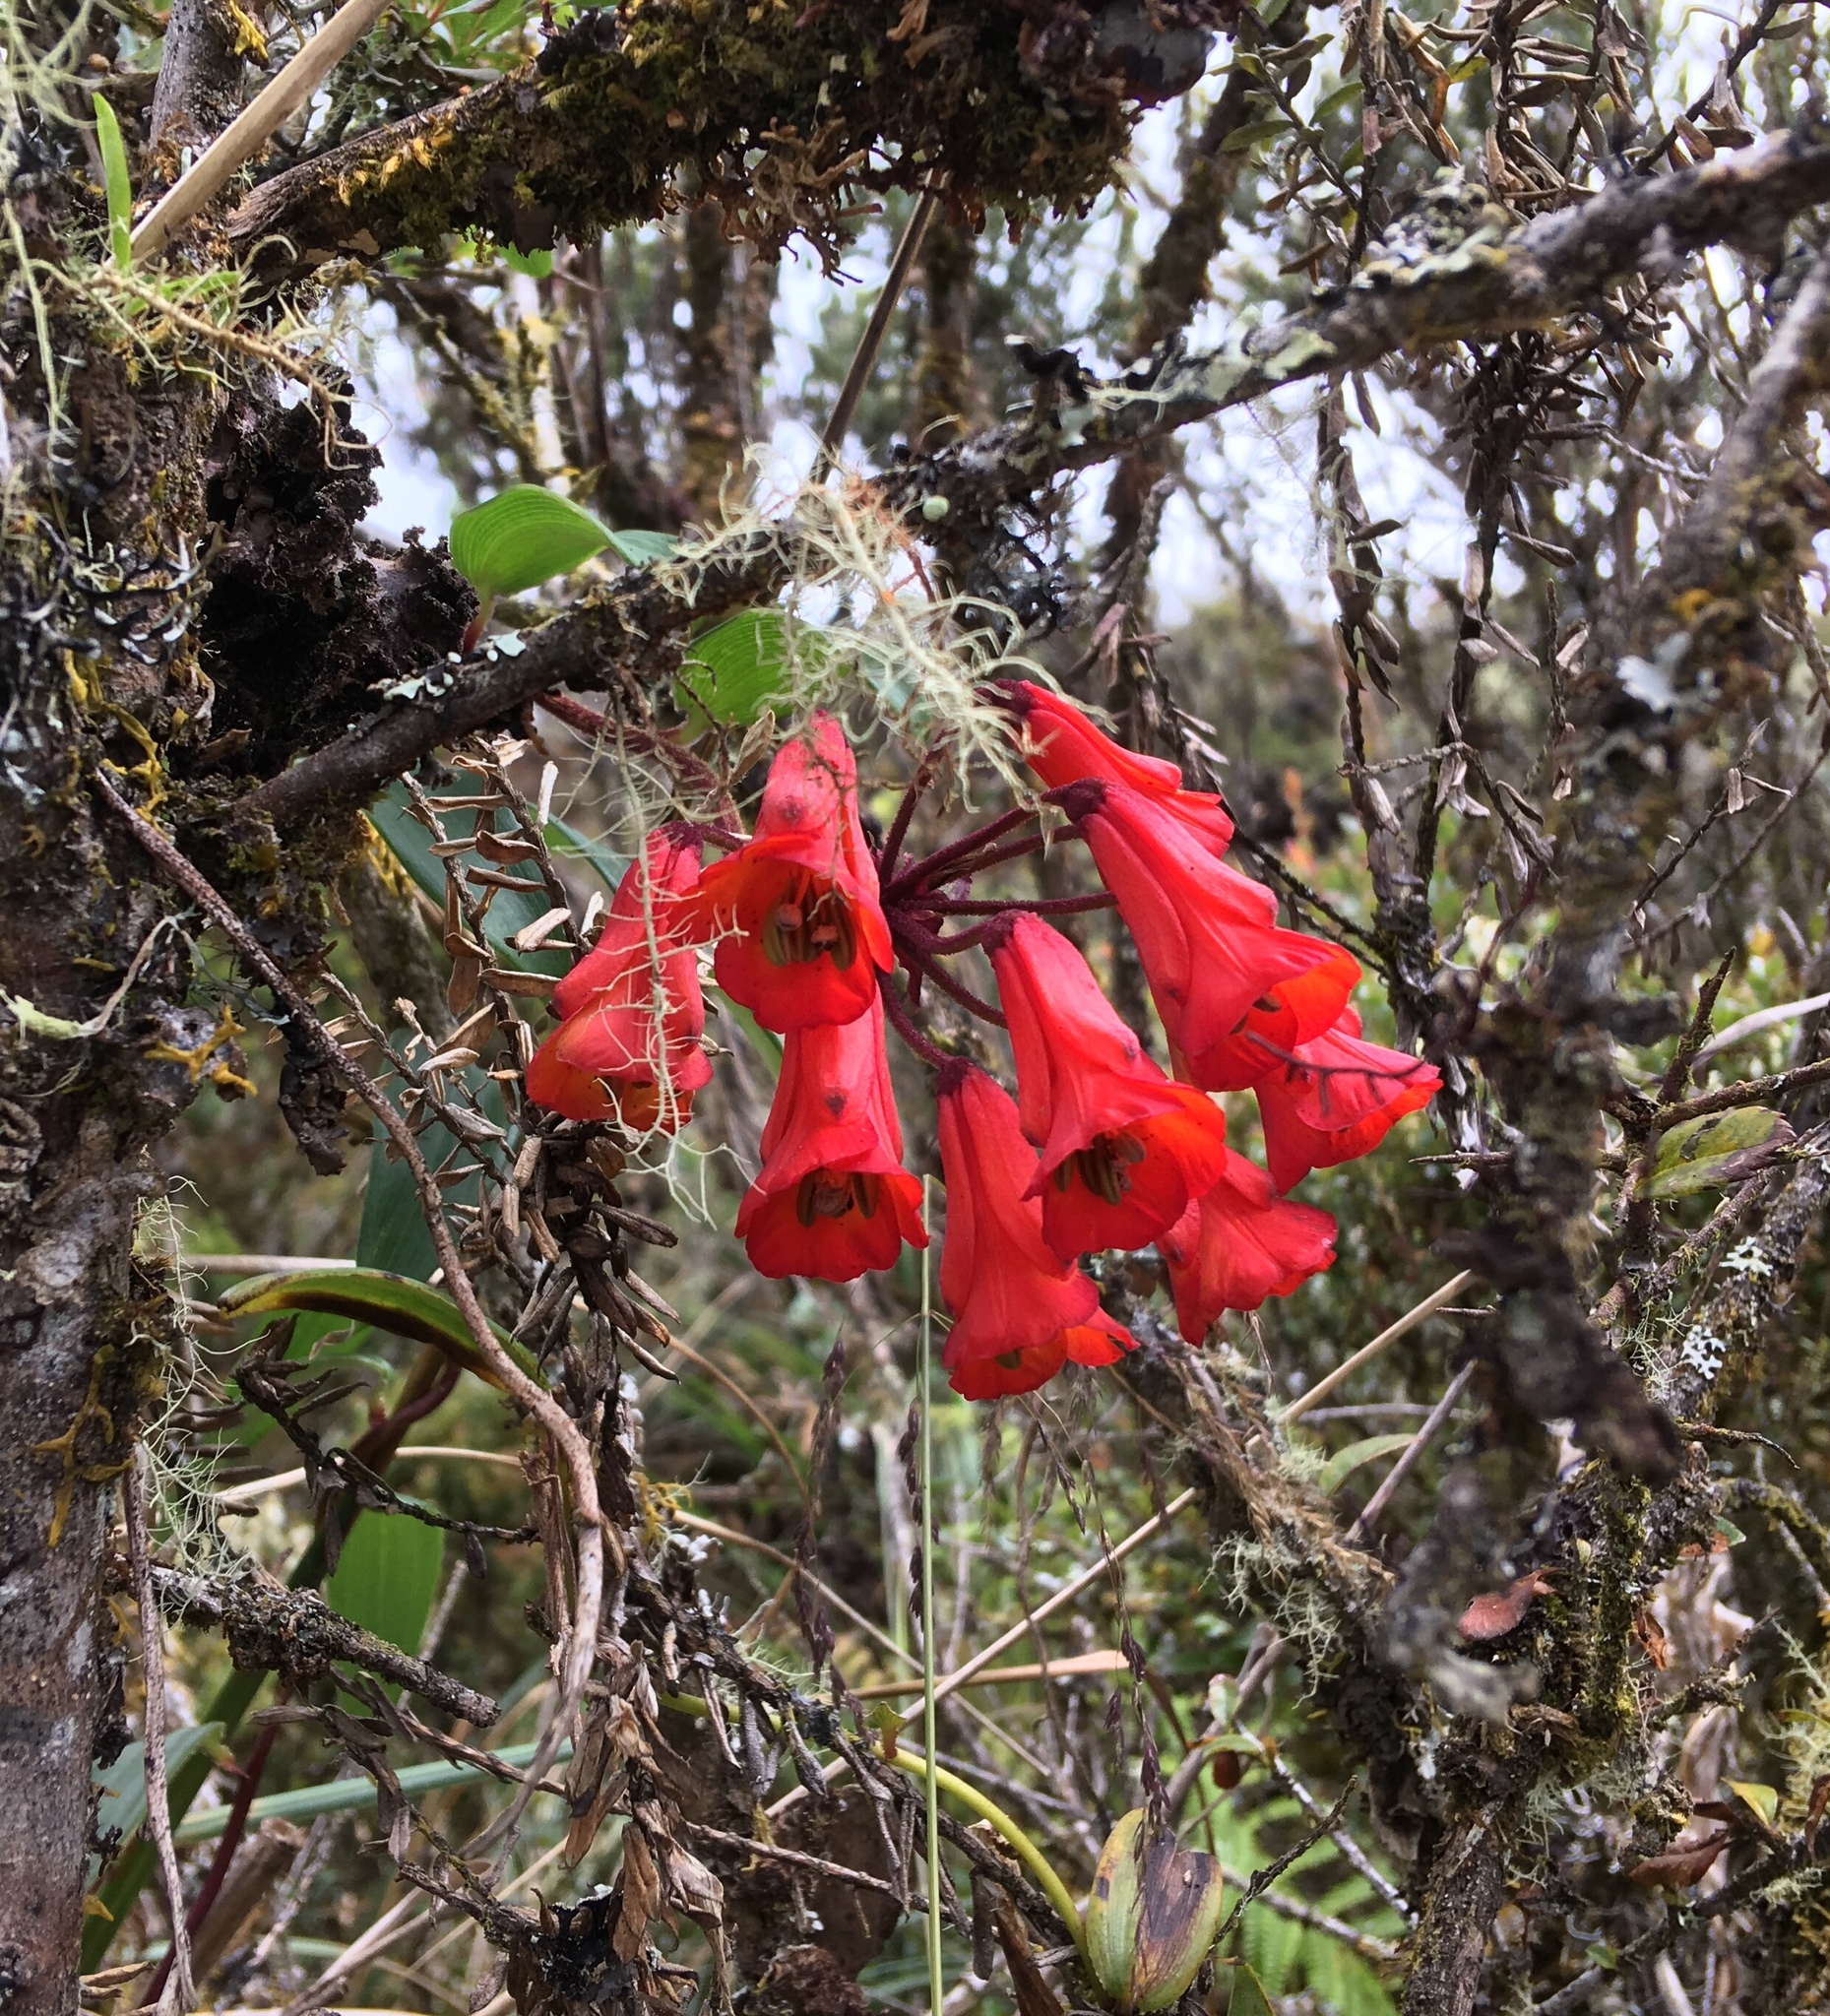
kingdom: Plantae
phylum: Tracheophyta
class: Liliopsida
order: Liliales
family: Alstroemeriaceae
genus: Bomarea
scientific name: Bomarea crassifolia
